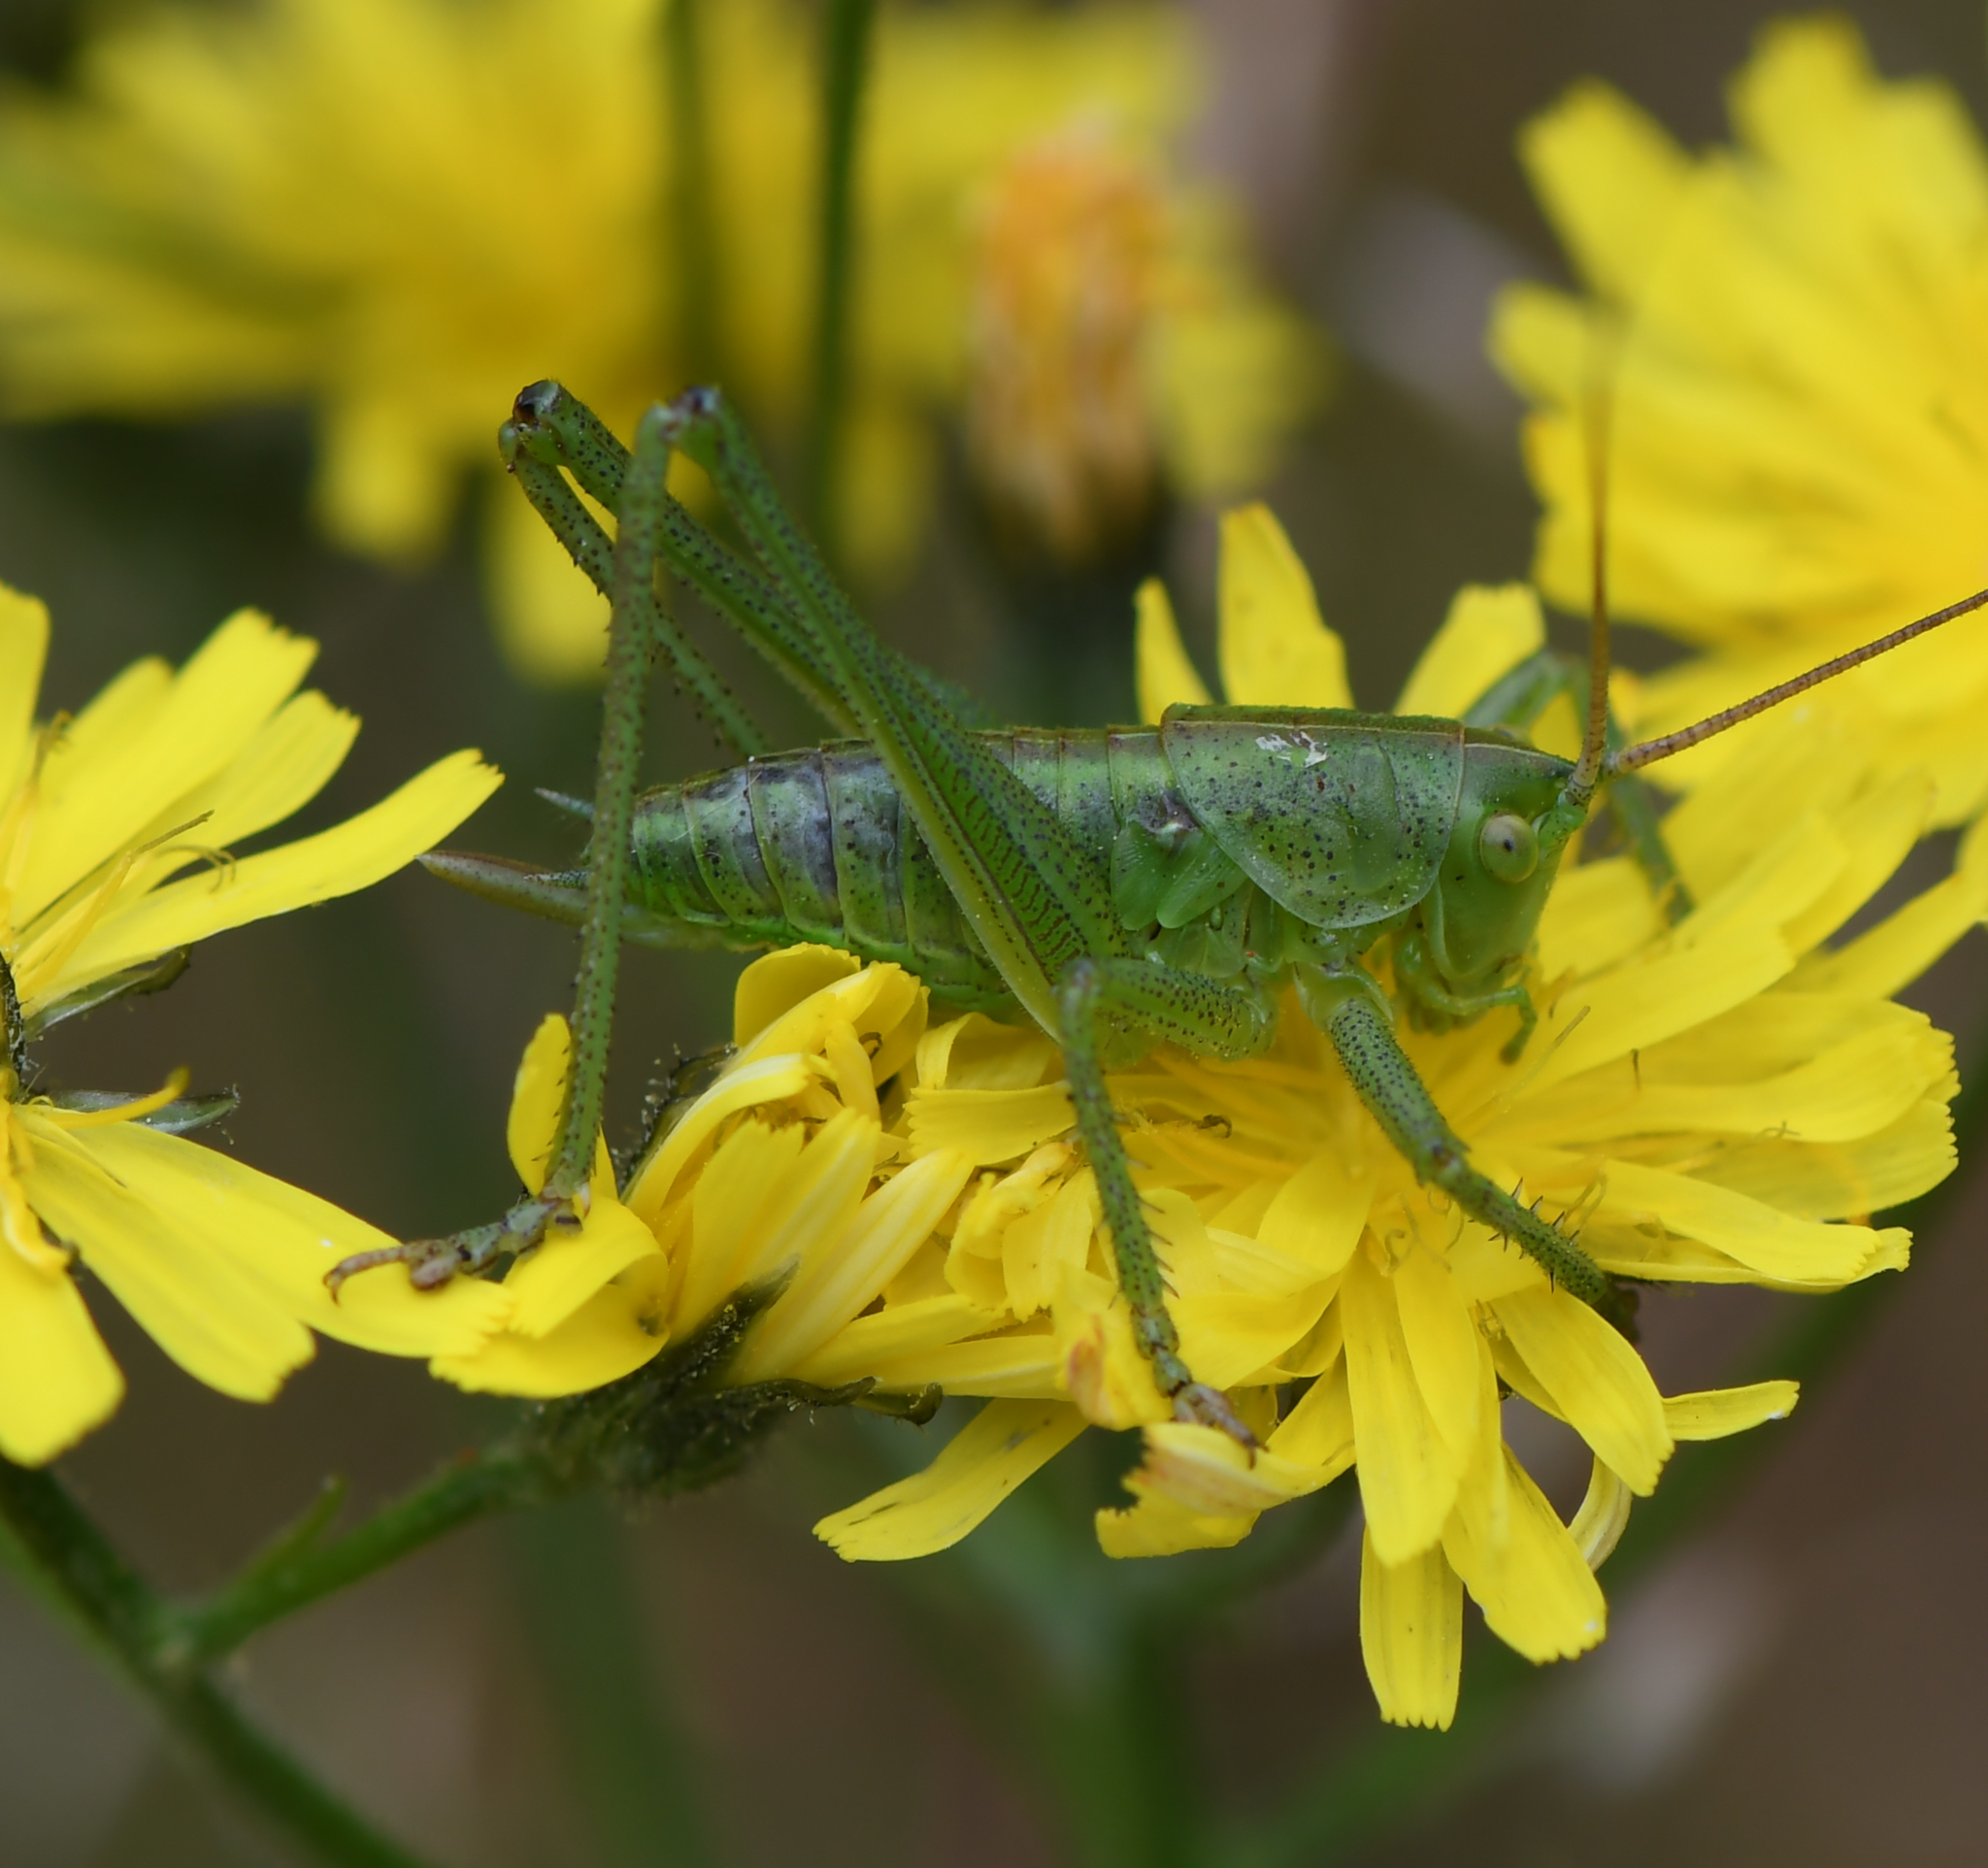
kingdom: Animalia
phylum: Arthropoda
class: Insecta
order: Orthoptera
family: Tettigoniidae
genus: Tettigonia
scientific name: Tettigonia viridissima
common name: Great green bush-cricket
